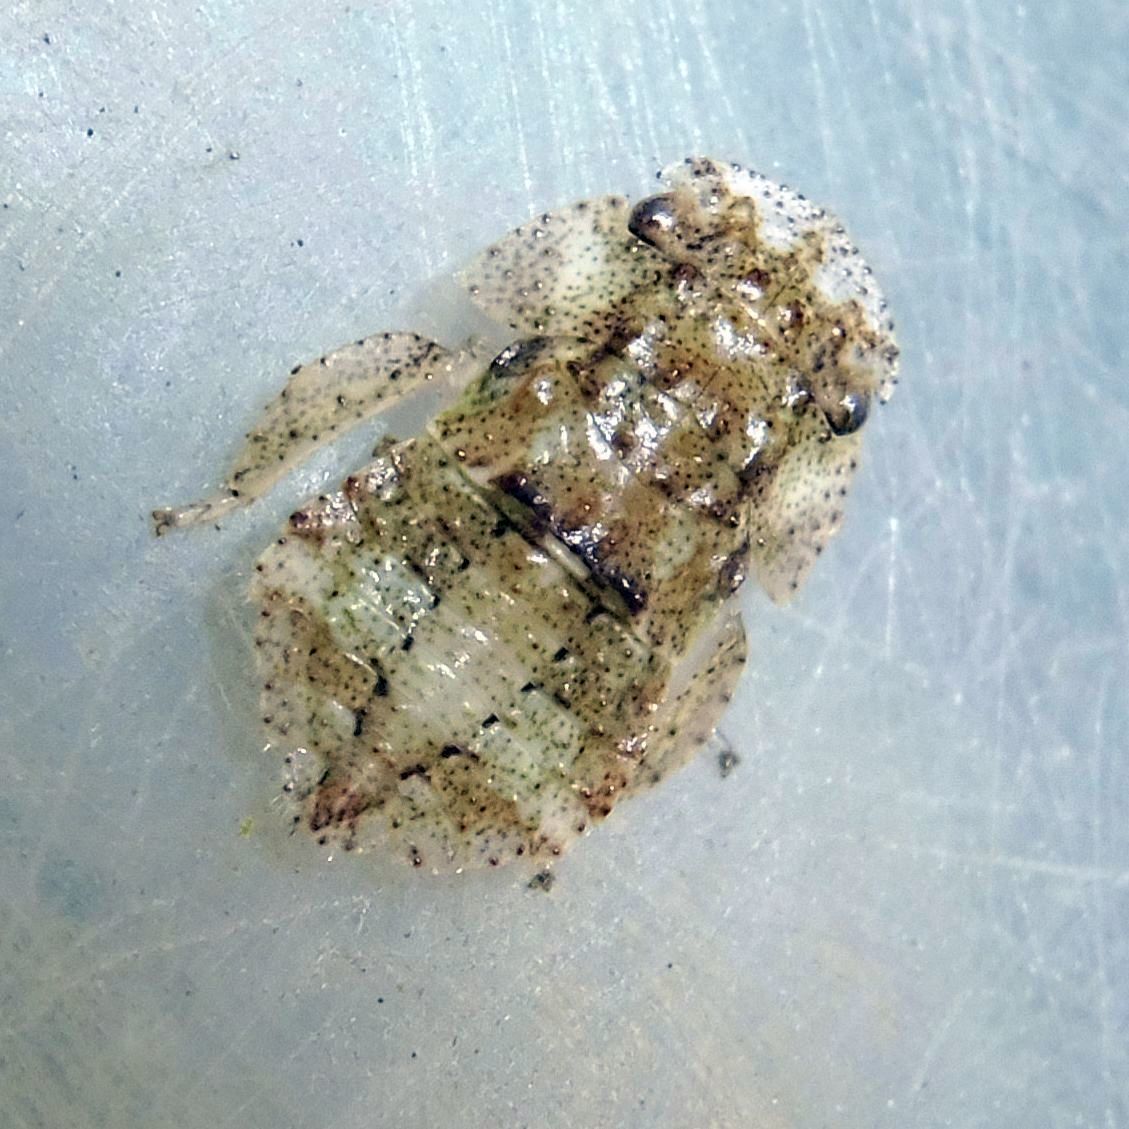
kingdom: Animalia
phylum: Arthropoda
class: Insecta
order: Hemiptera
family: Cicadellidae
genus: Ledra
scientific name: Ledra aurita
